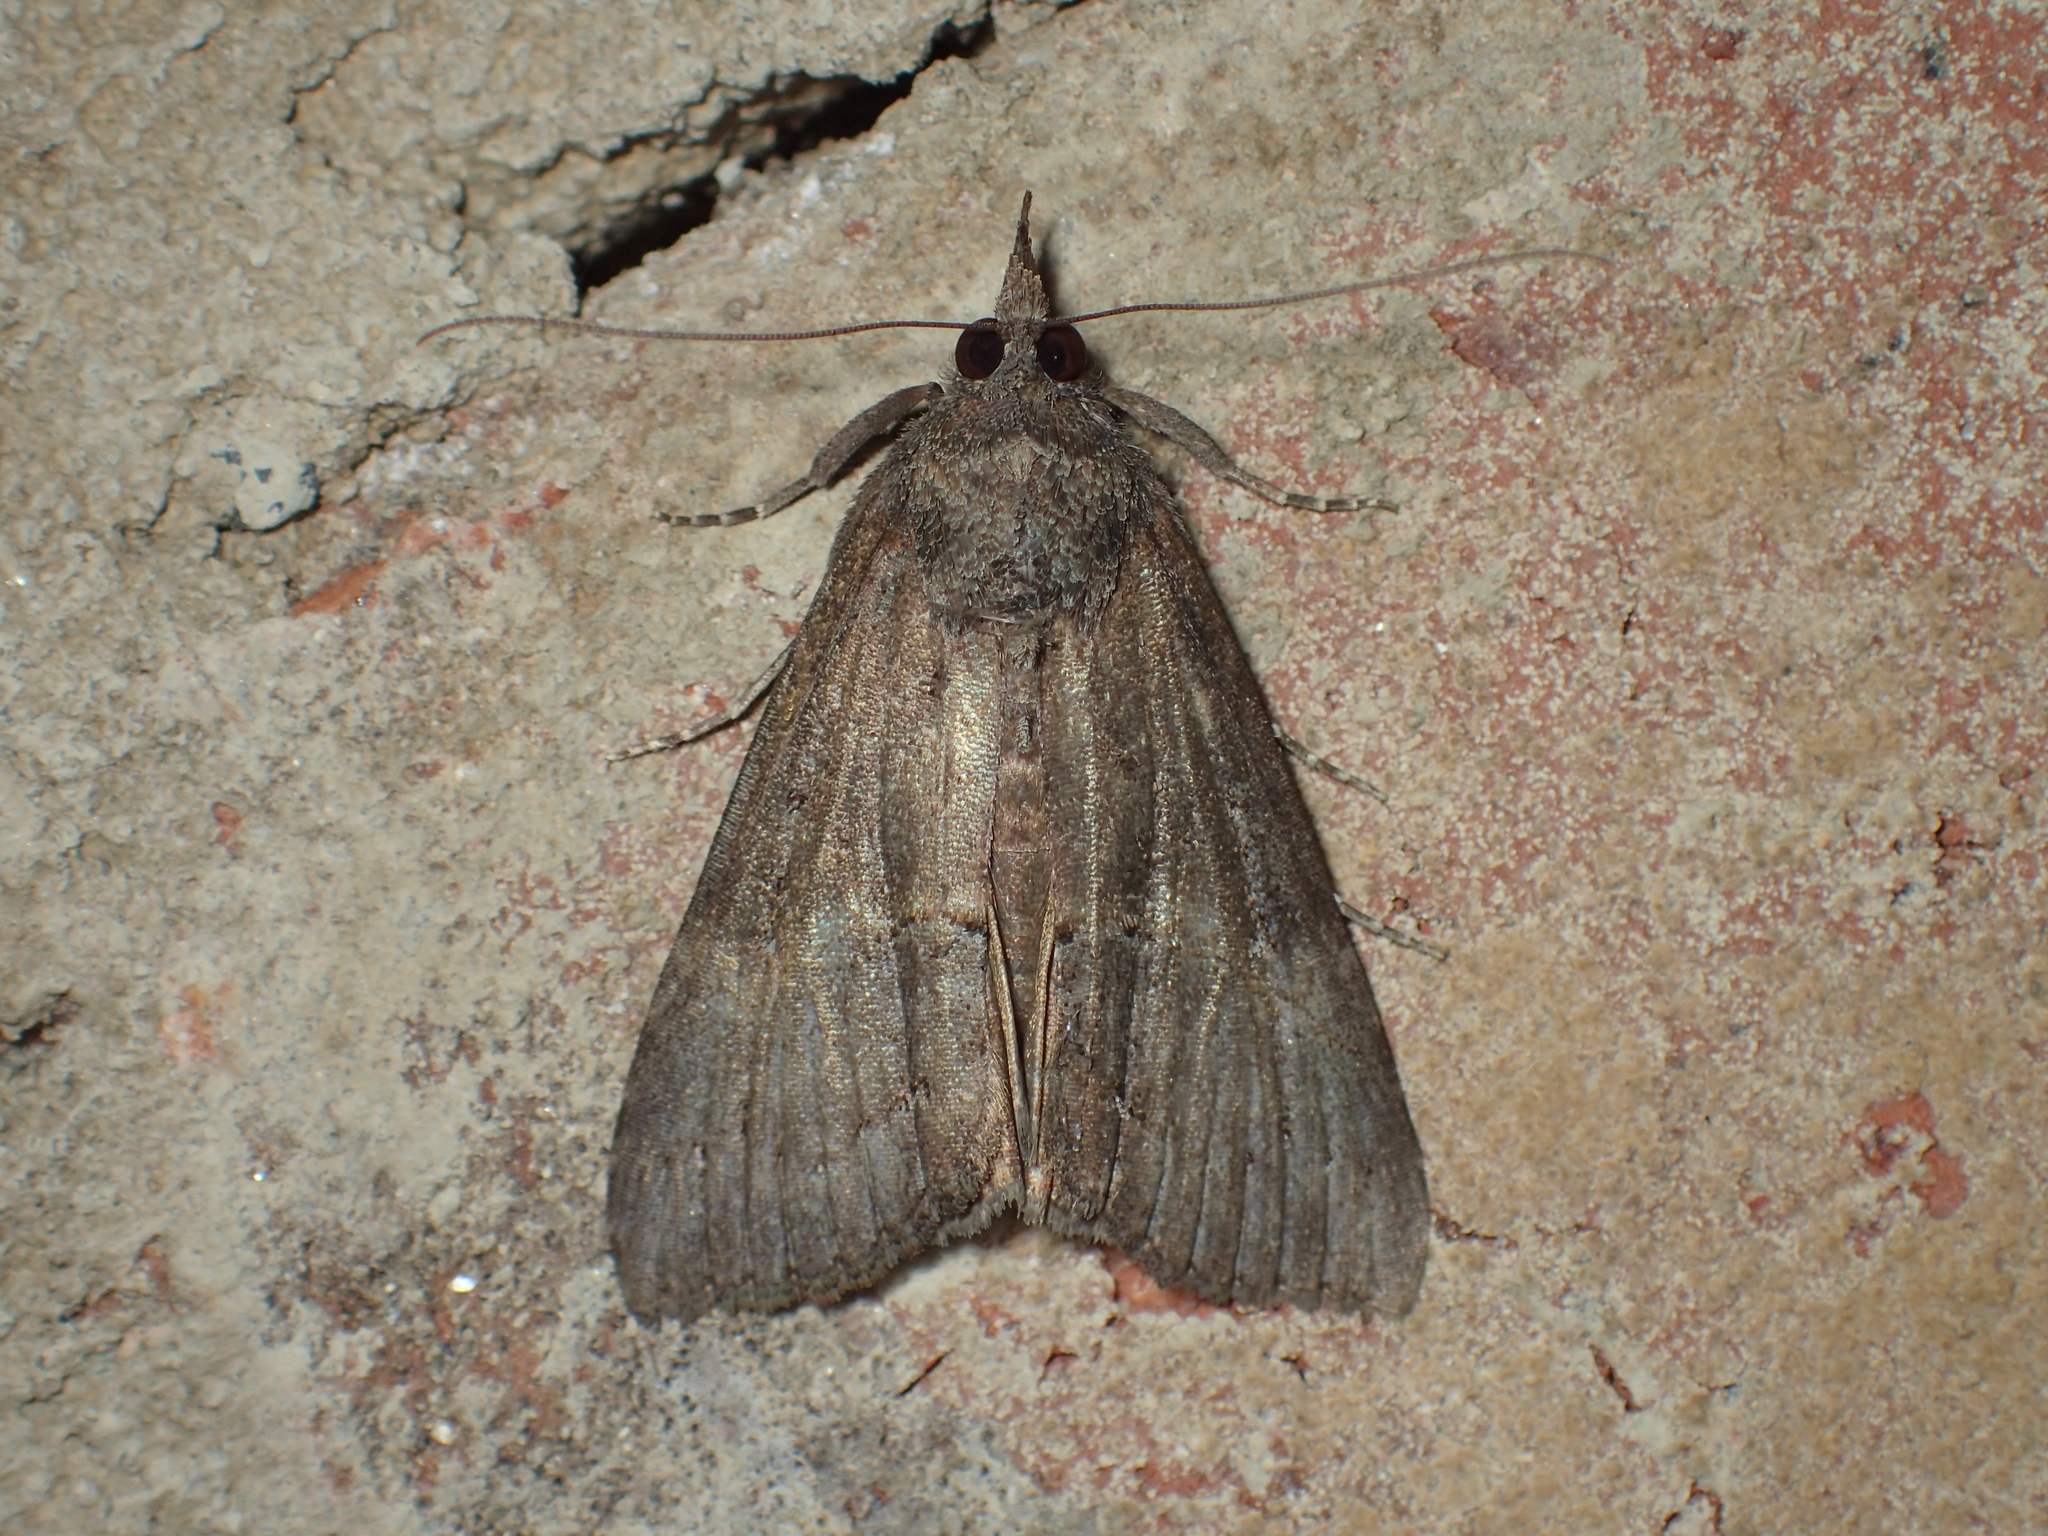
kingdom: Animalia
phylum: Arthropoda
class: Insecta
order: Lepidoptera
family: Erebidae
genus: Hypena
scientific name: Hypena scabra
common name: Green cloverworm
